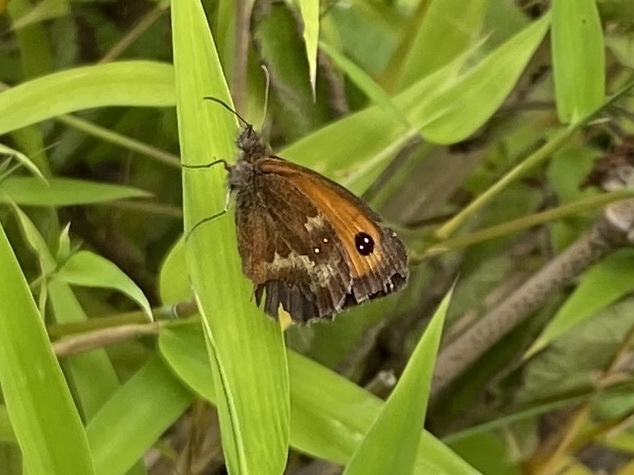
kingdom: Animalia
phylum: Arthropoda
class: Insecta
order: Lepidoptera
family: Nymphalidae
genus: Pyronia
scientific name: Pyronia tithonus
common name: Gatekeeper
